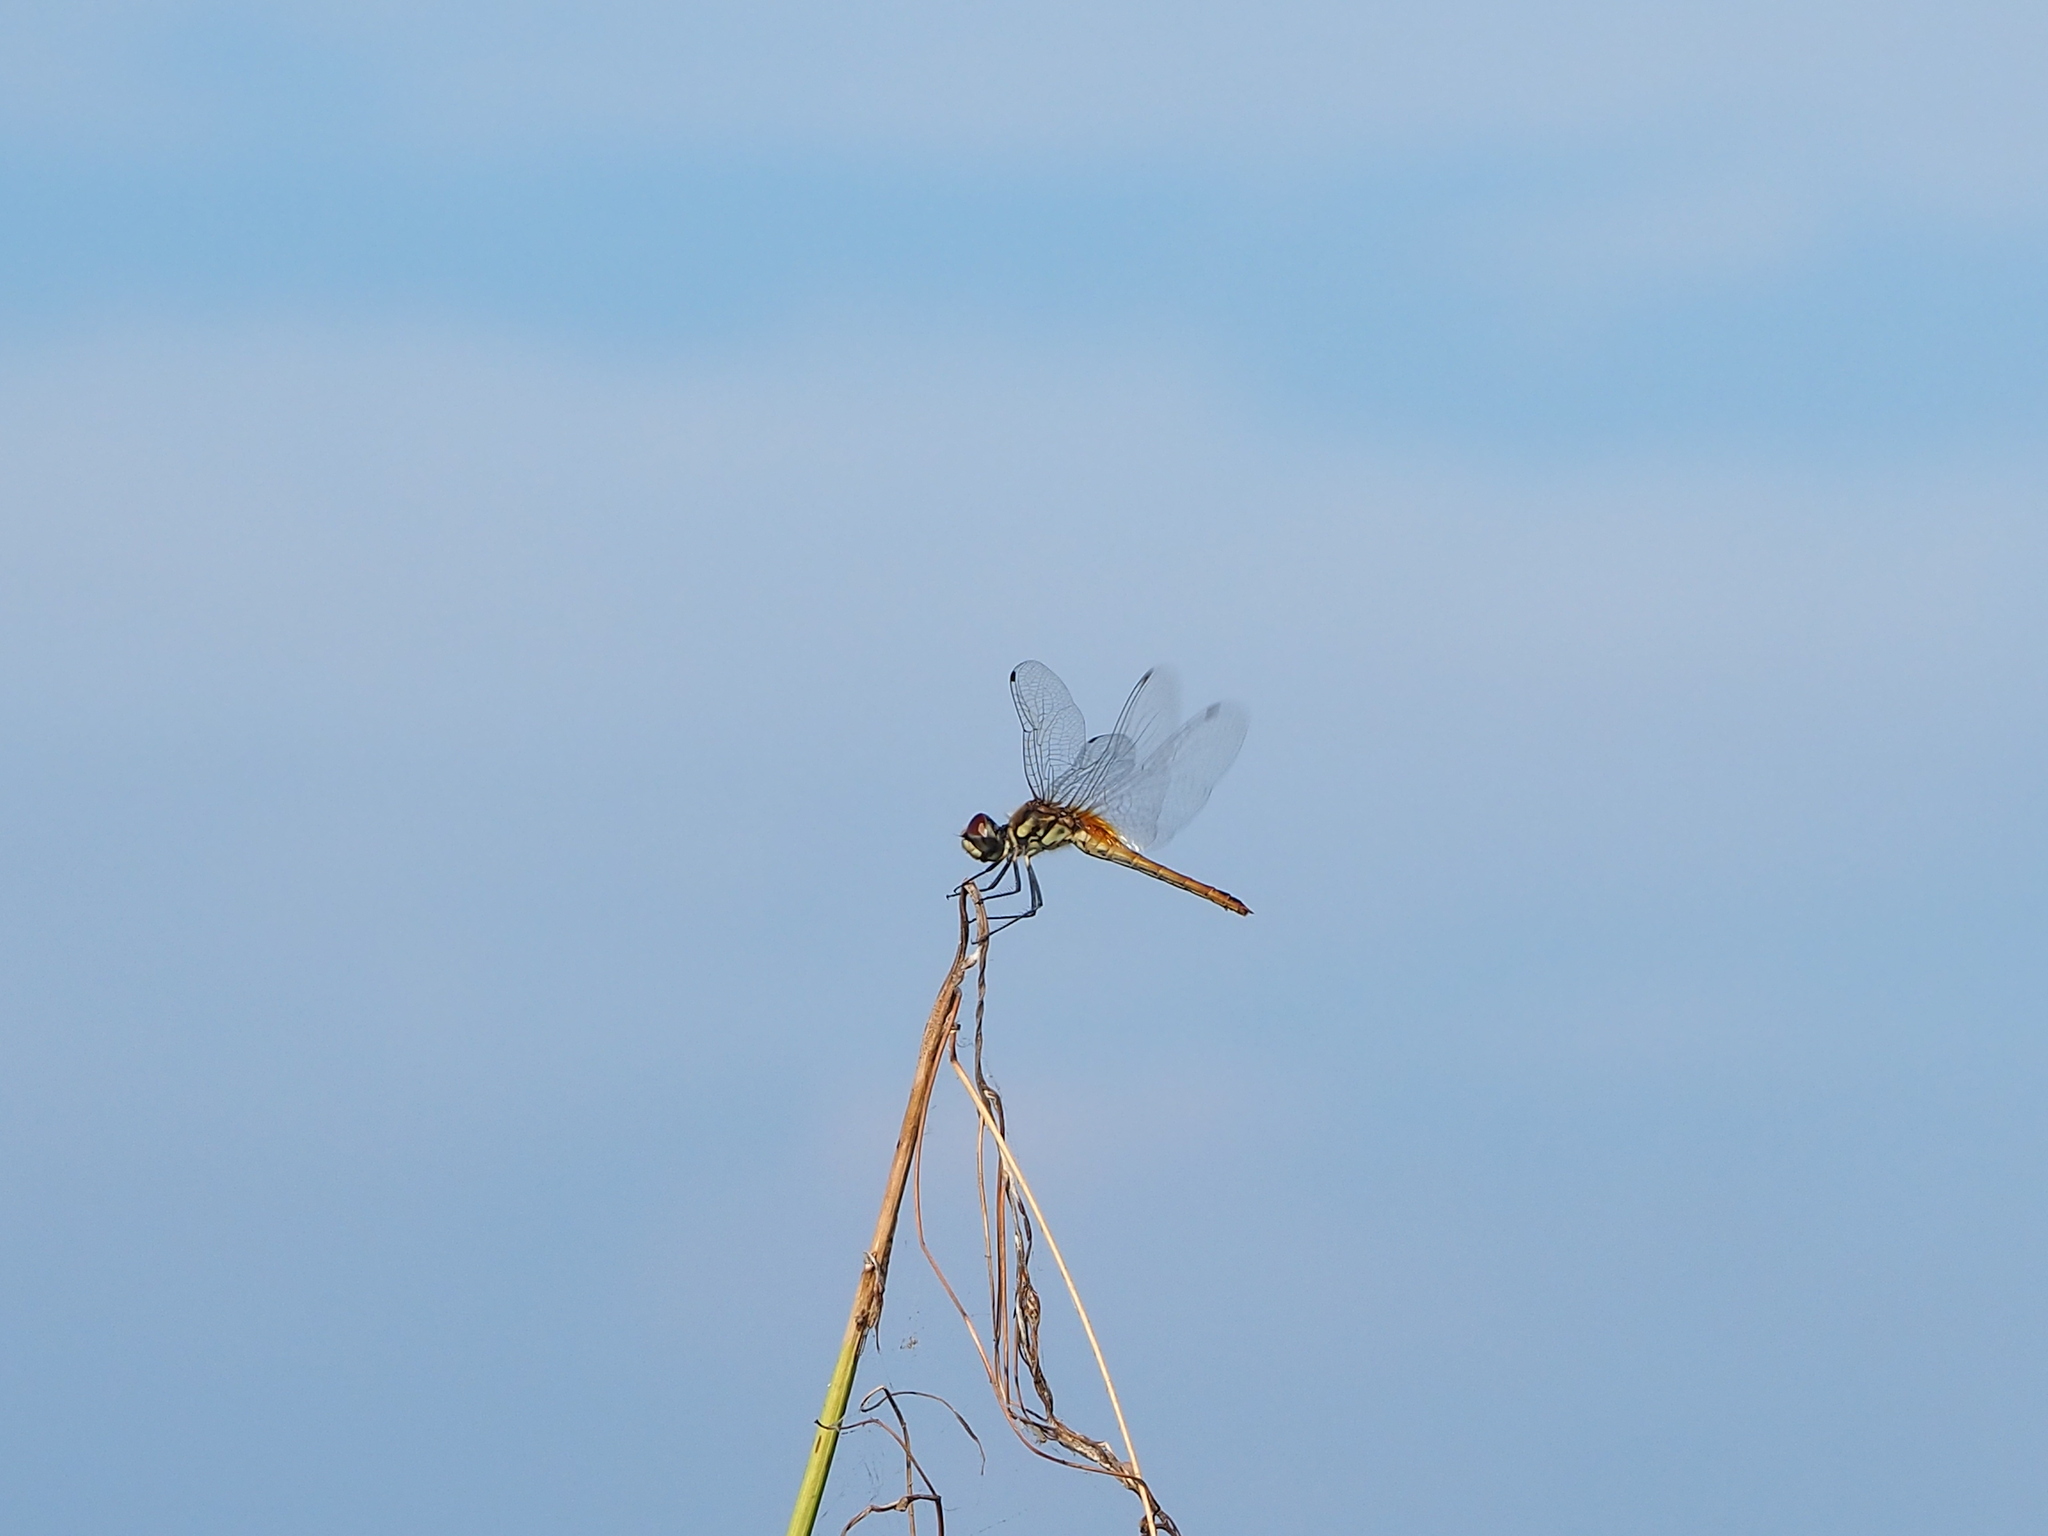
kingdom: Animalia
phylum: Arthropoda
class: Insecta
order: Odonata
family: Libellulidae
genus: Macrodiplax
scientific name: Macrodiplax cora
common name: Coastal glider
